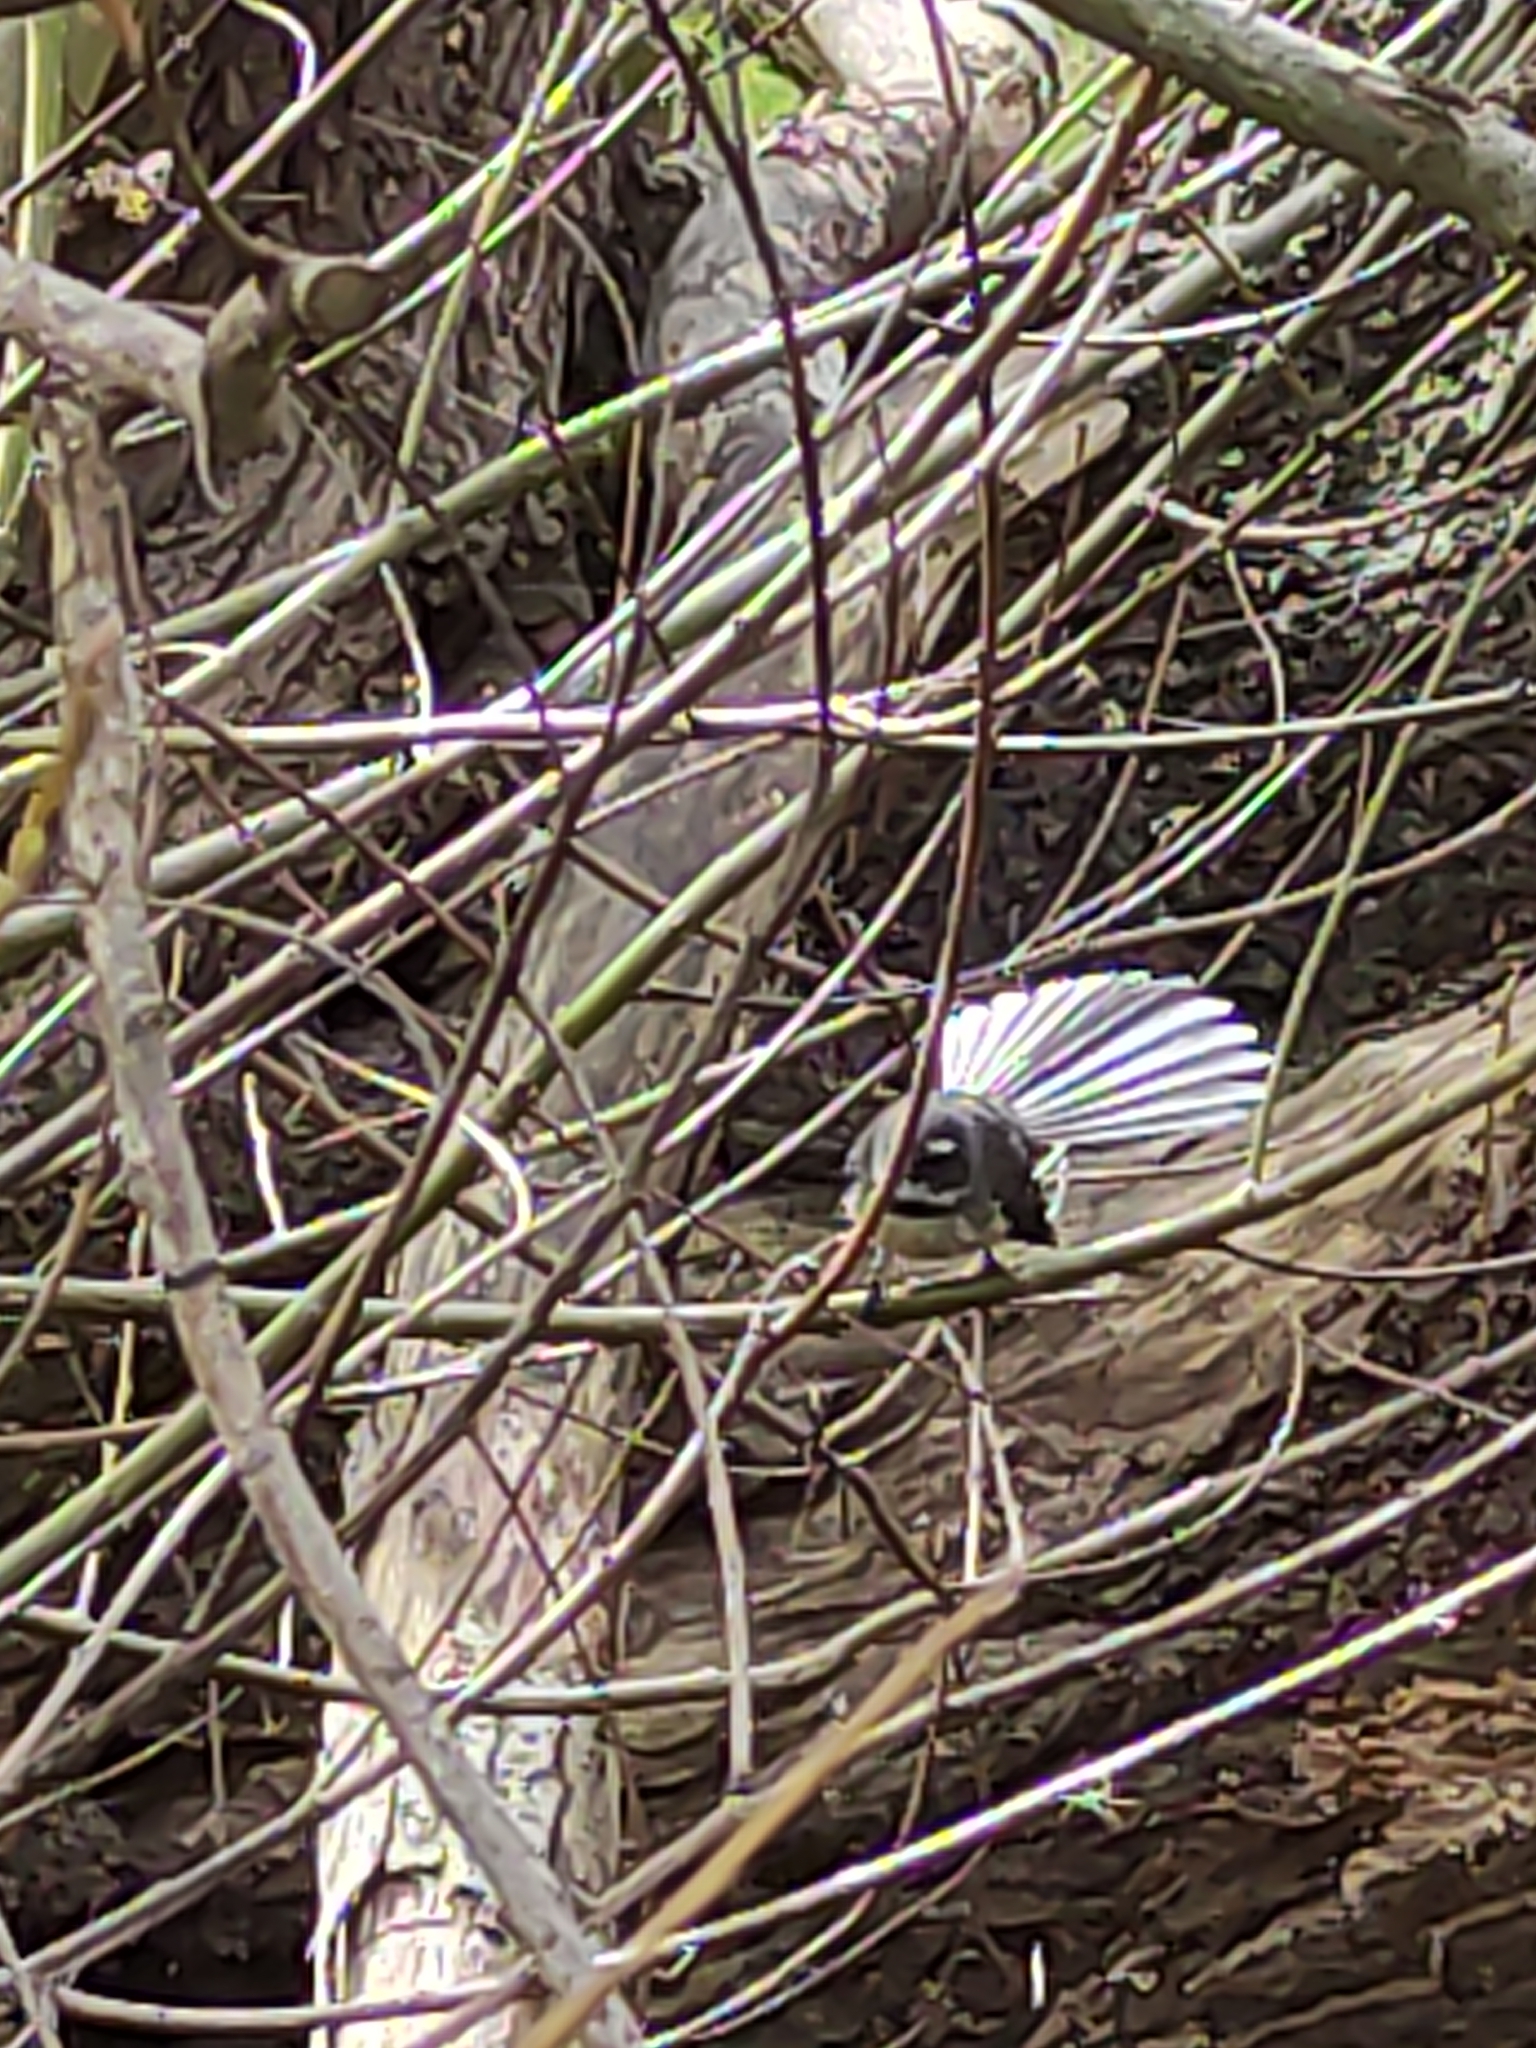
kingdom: Animalia
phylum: Chordata
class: Aves
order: Passeriformes
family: Rhipiduridae
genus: Rhipidura
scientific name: Rhipidura fuliginosa
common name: New zealand fantail
